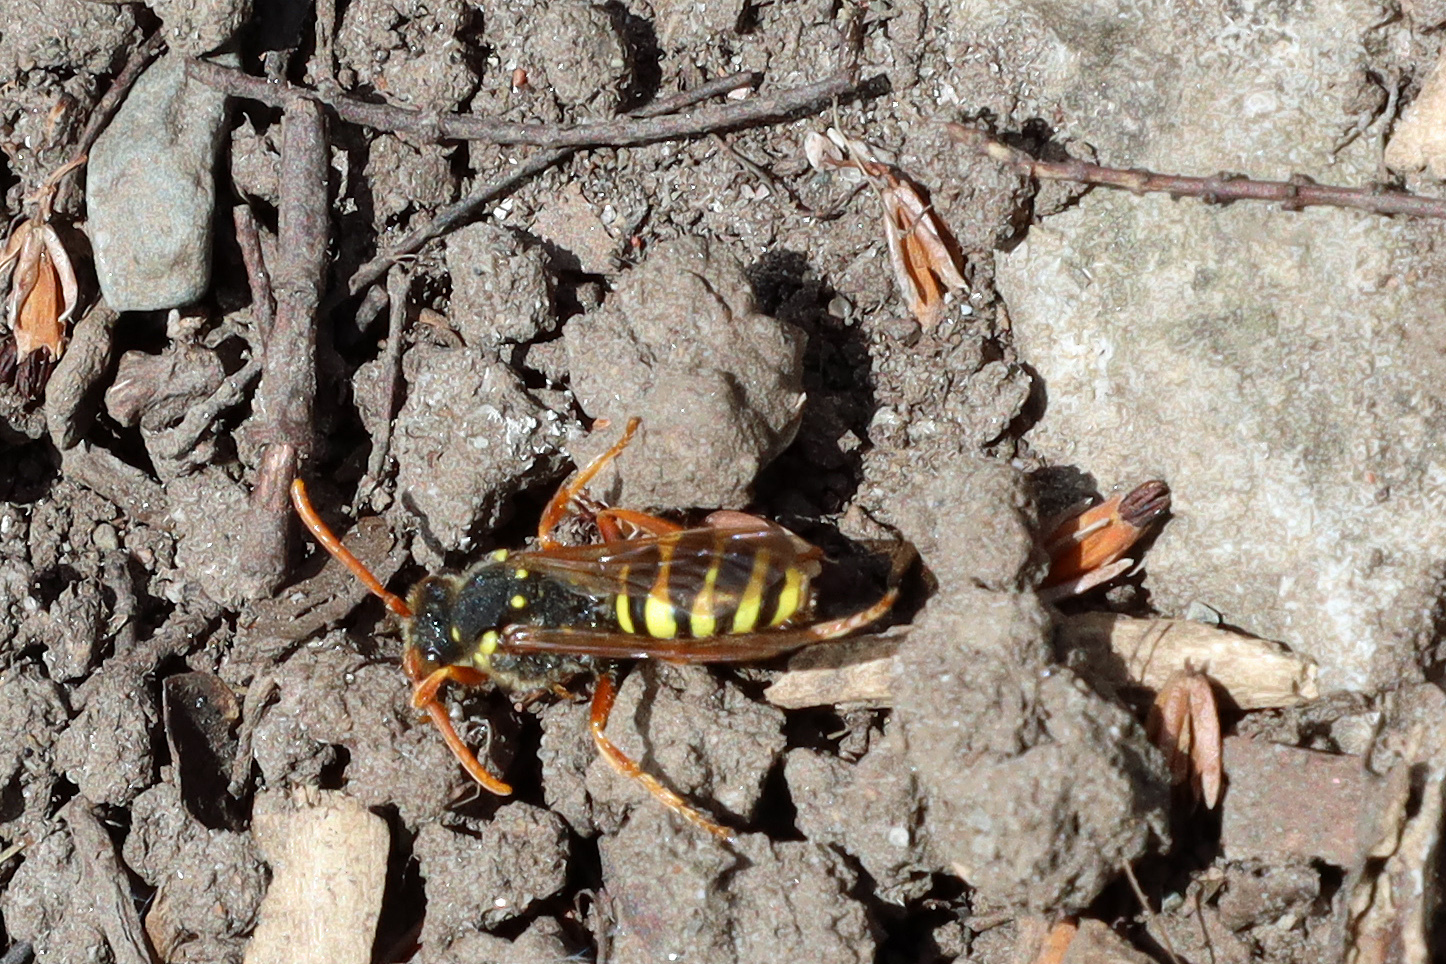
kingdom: Animalia
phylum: Arthropoda
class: Insecta
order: Hymenoptera
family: Apidae
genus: Nomada
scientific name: Nomada goodeniana
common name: Gooden's nomad bee
